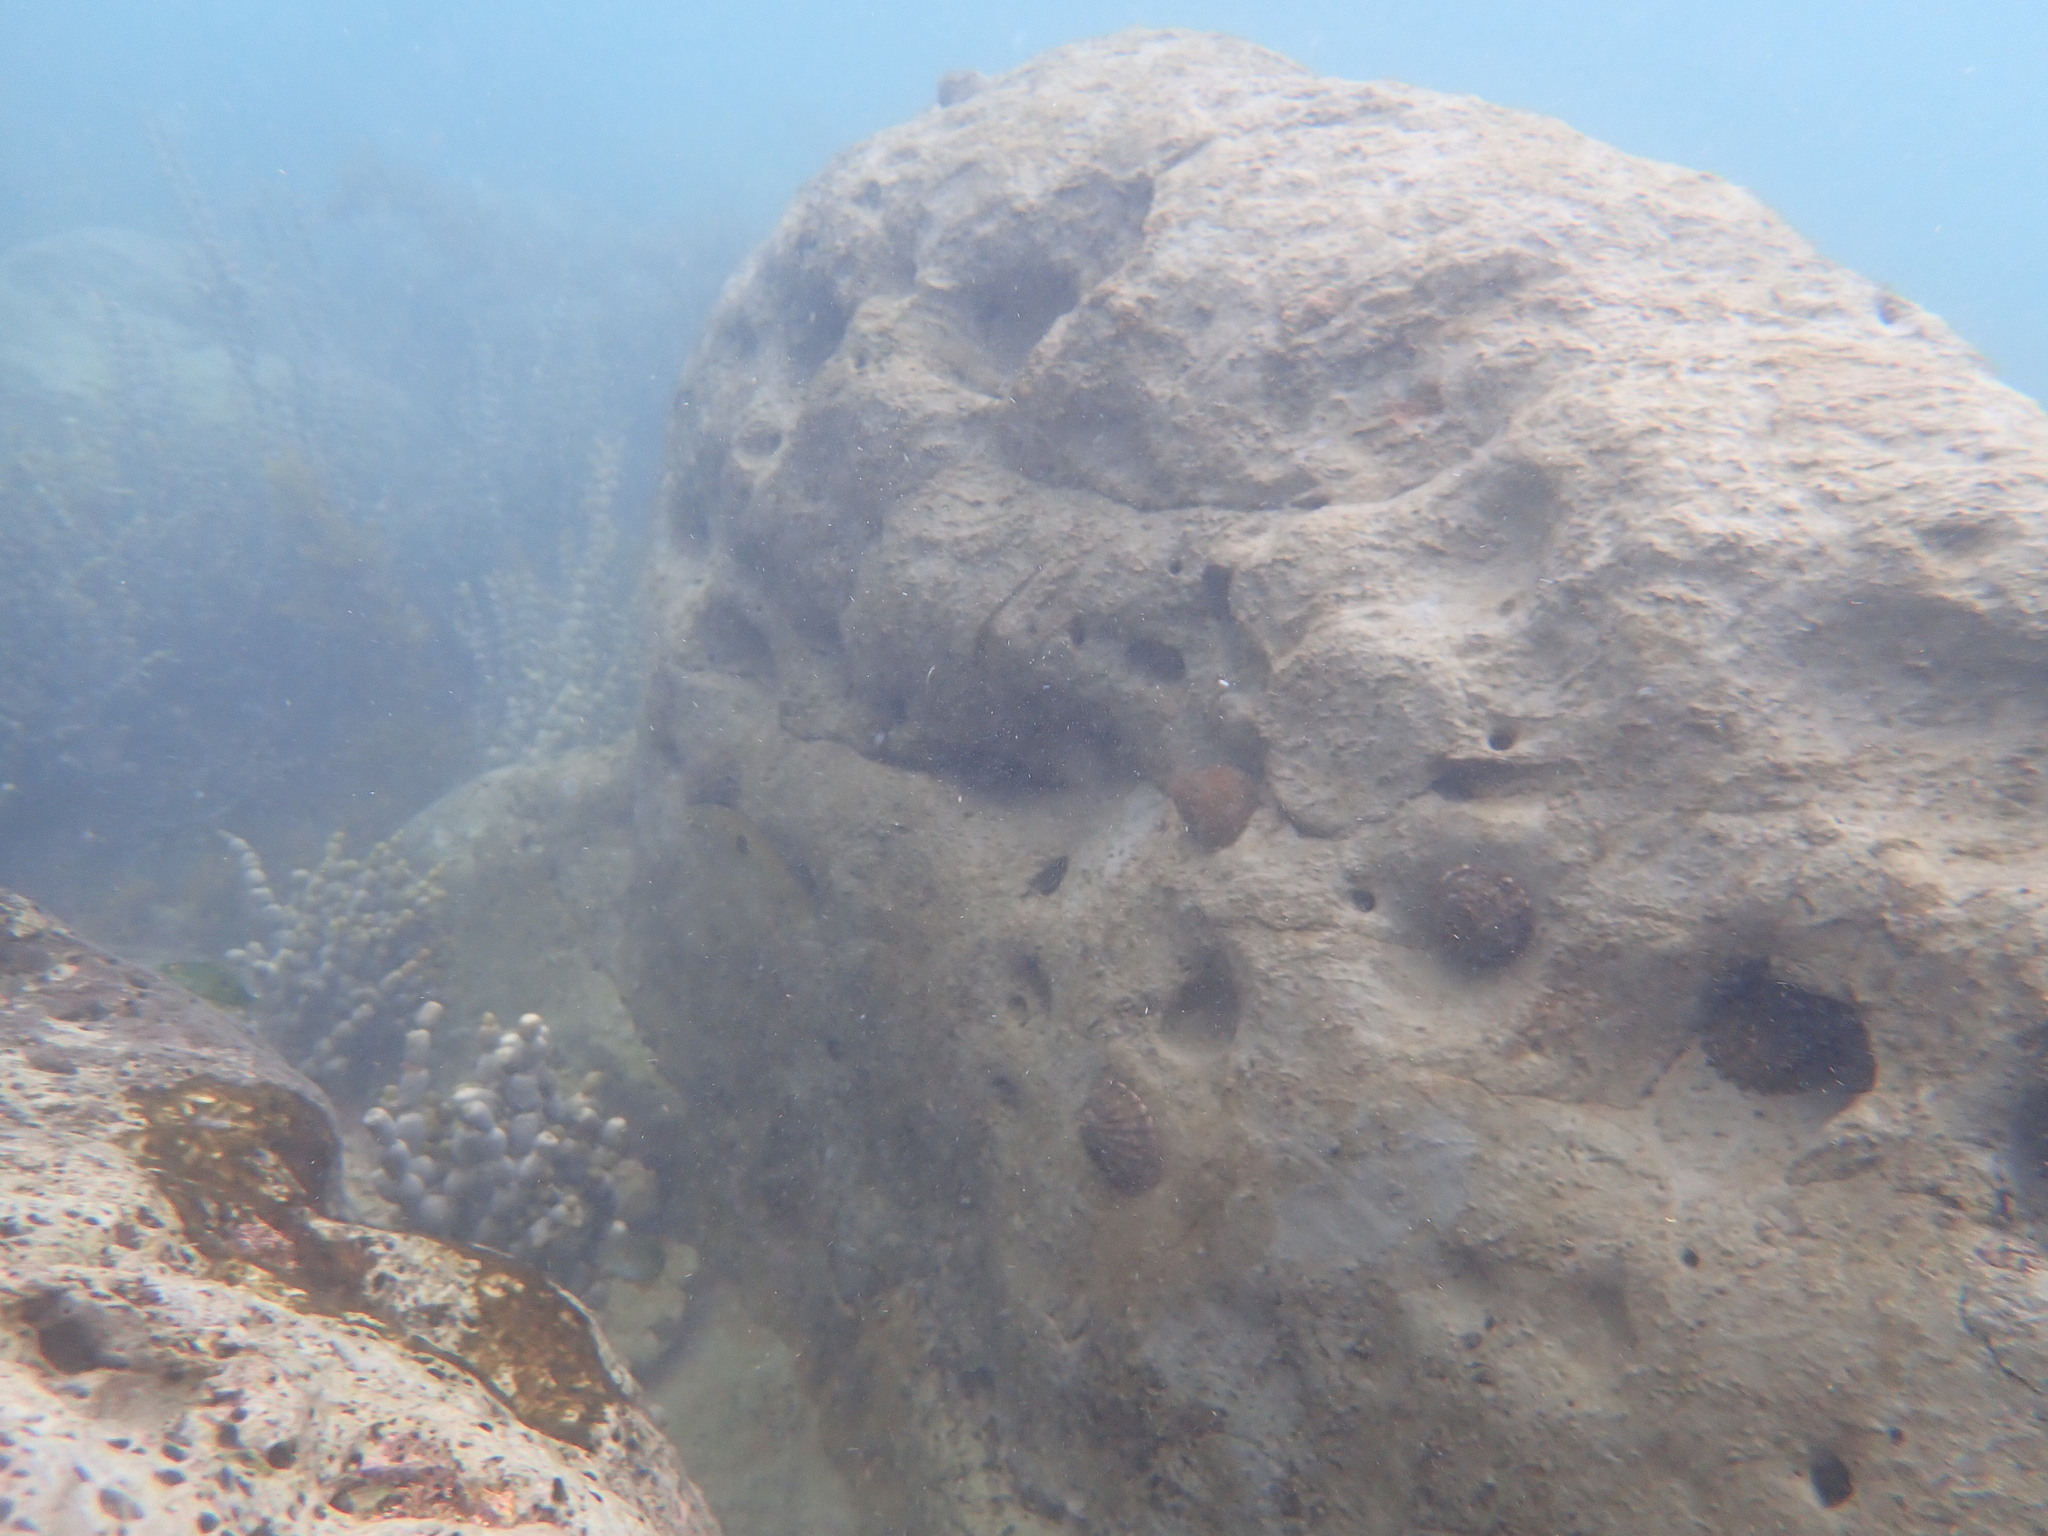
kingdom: Animalia
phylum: Mollusca
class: Gastropoda
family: Nacellidae
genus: Cellana
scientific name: Cellana radians
